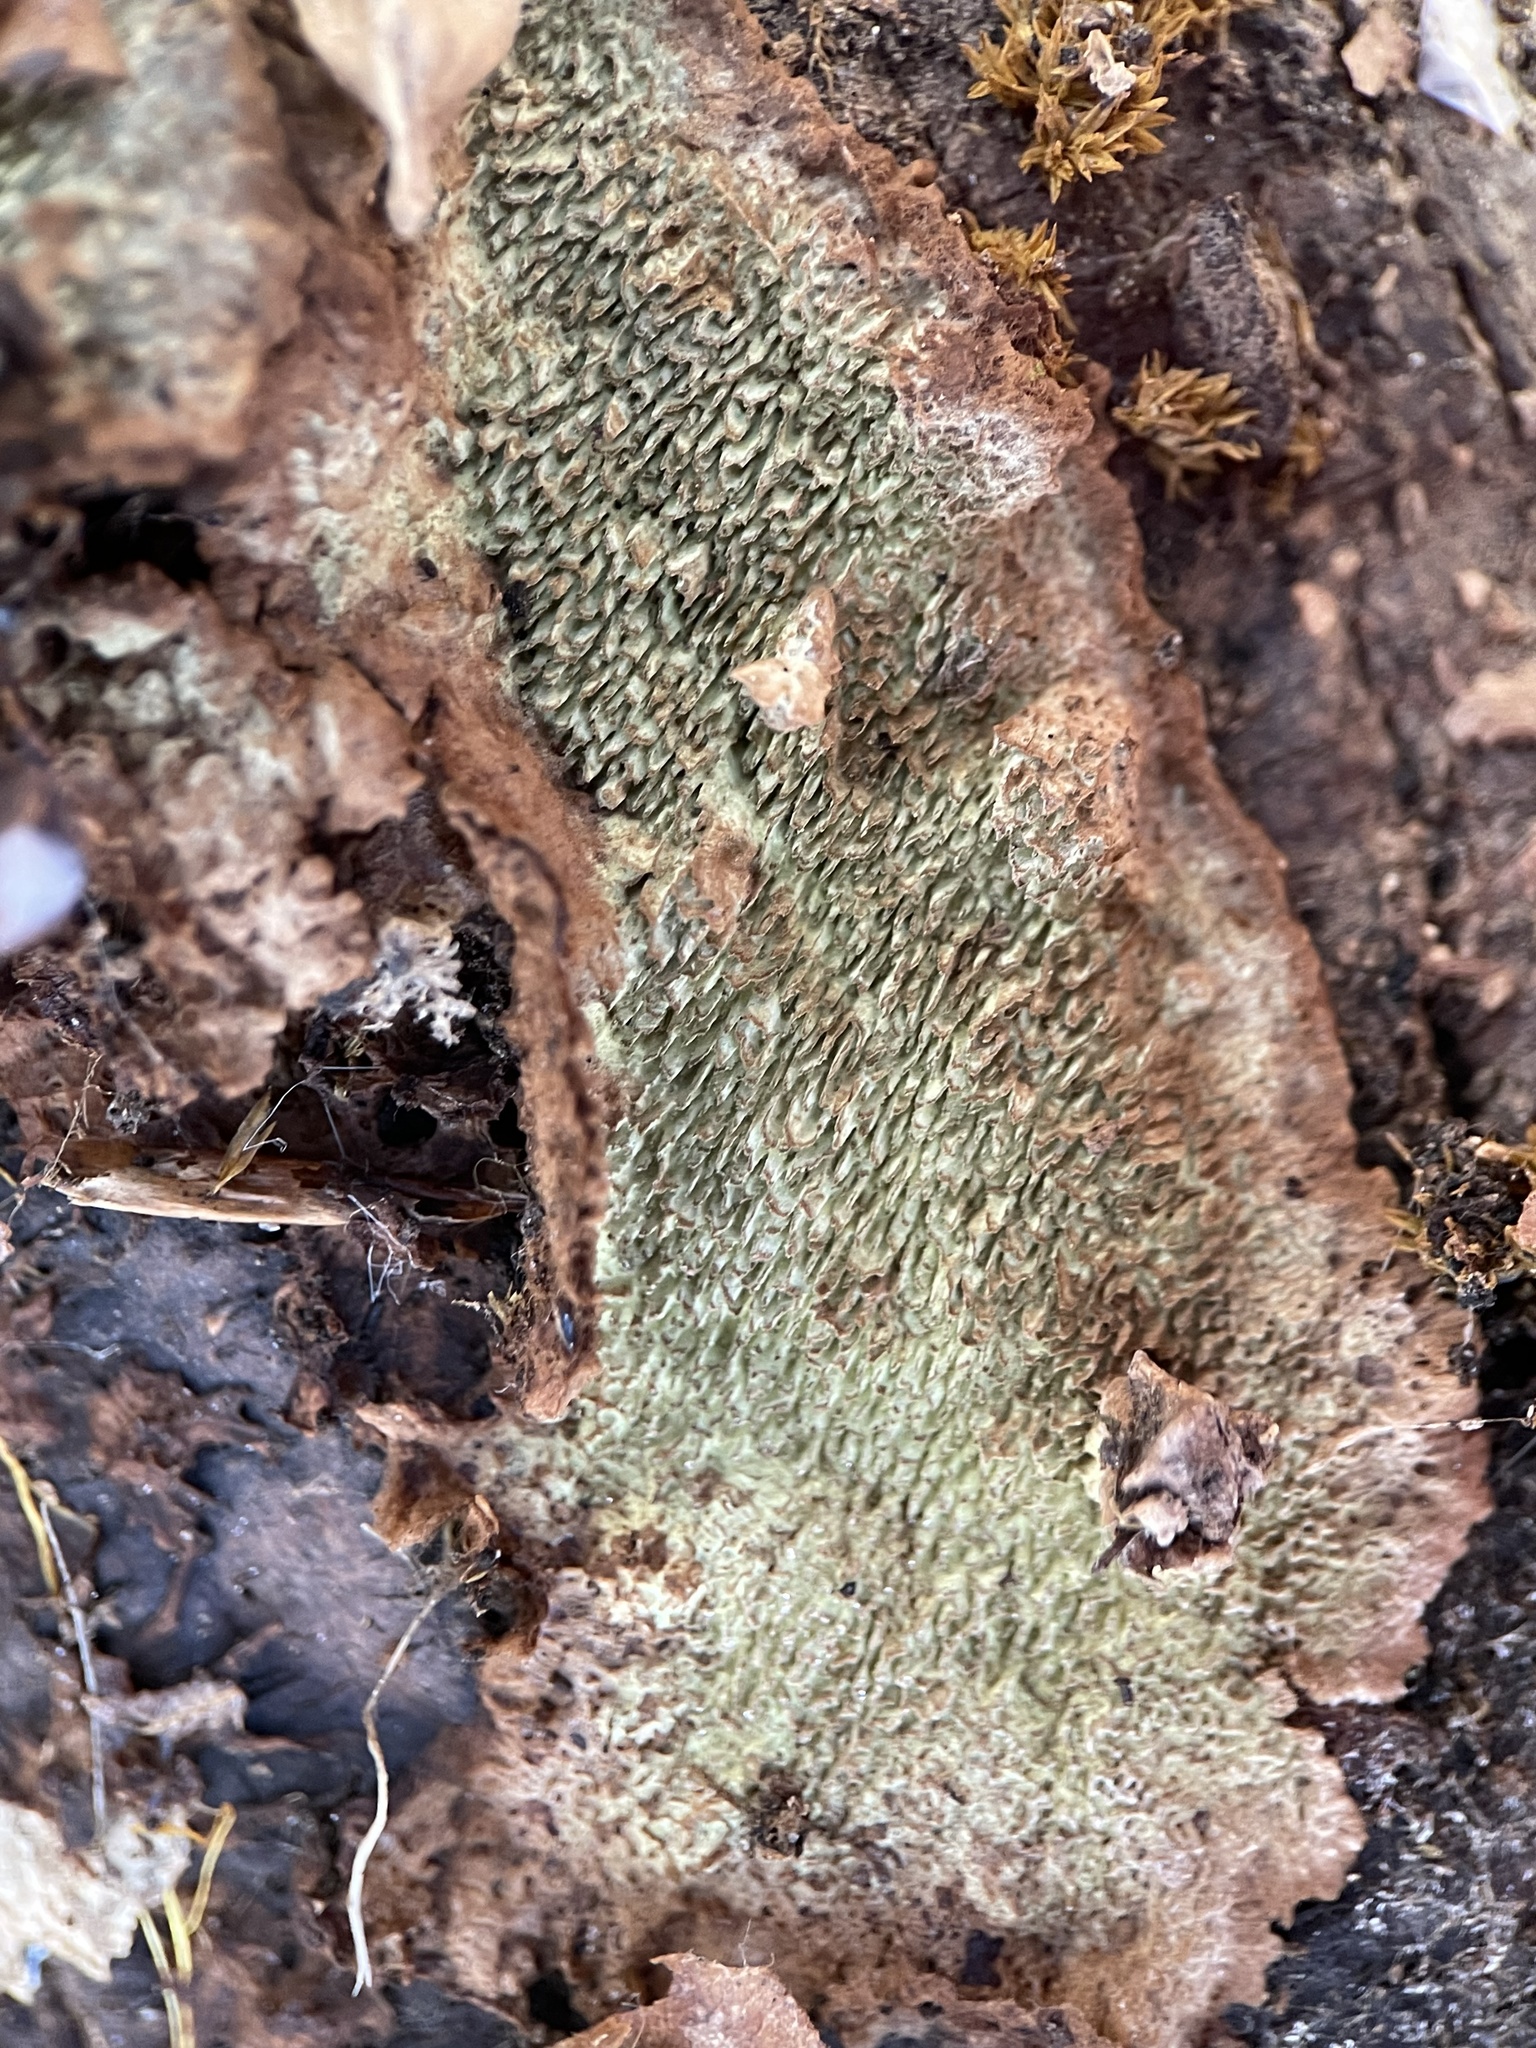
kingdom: Fungi
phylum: Basidiomycota
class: Agaricomycetes
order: Polyporales
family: Polyporaceae
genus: Dentocorticium
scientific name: Dentocorticium portoricense
